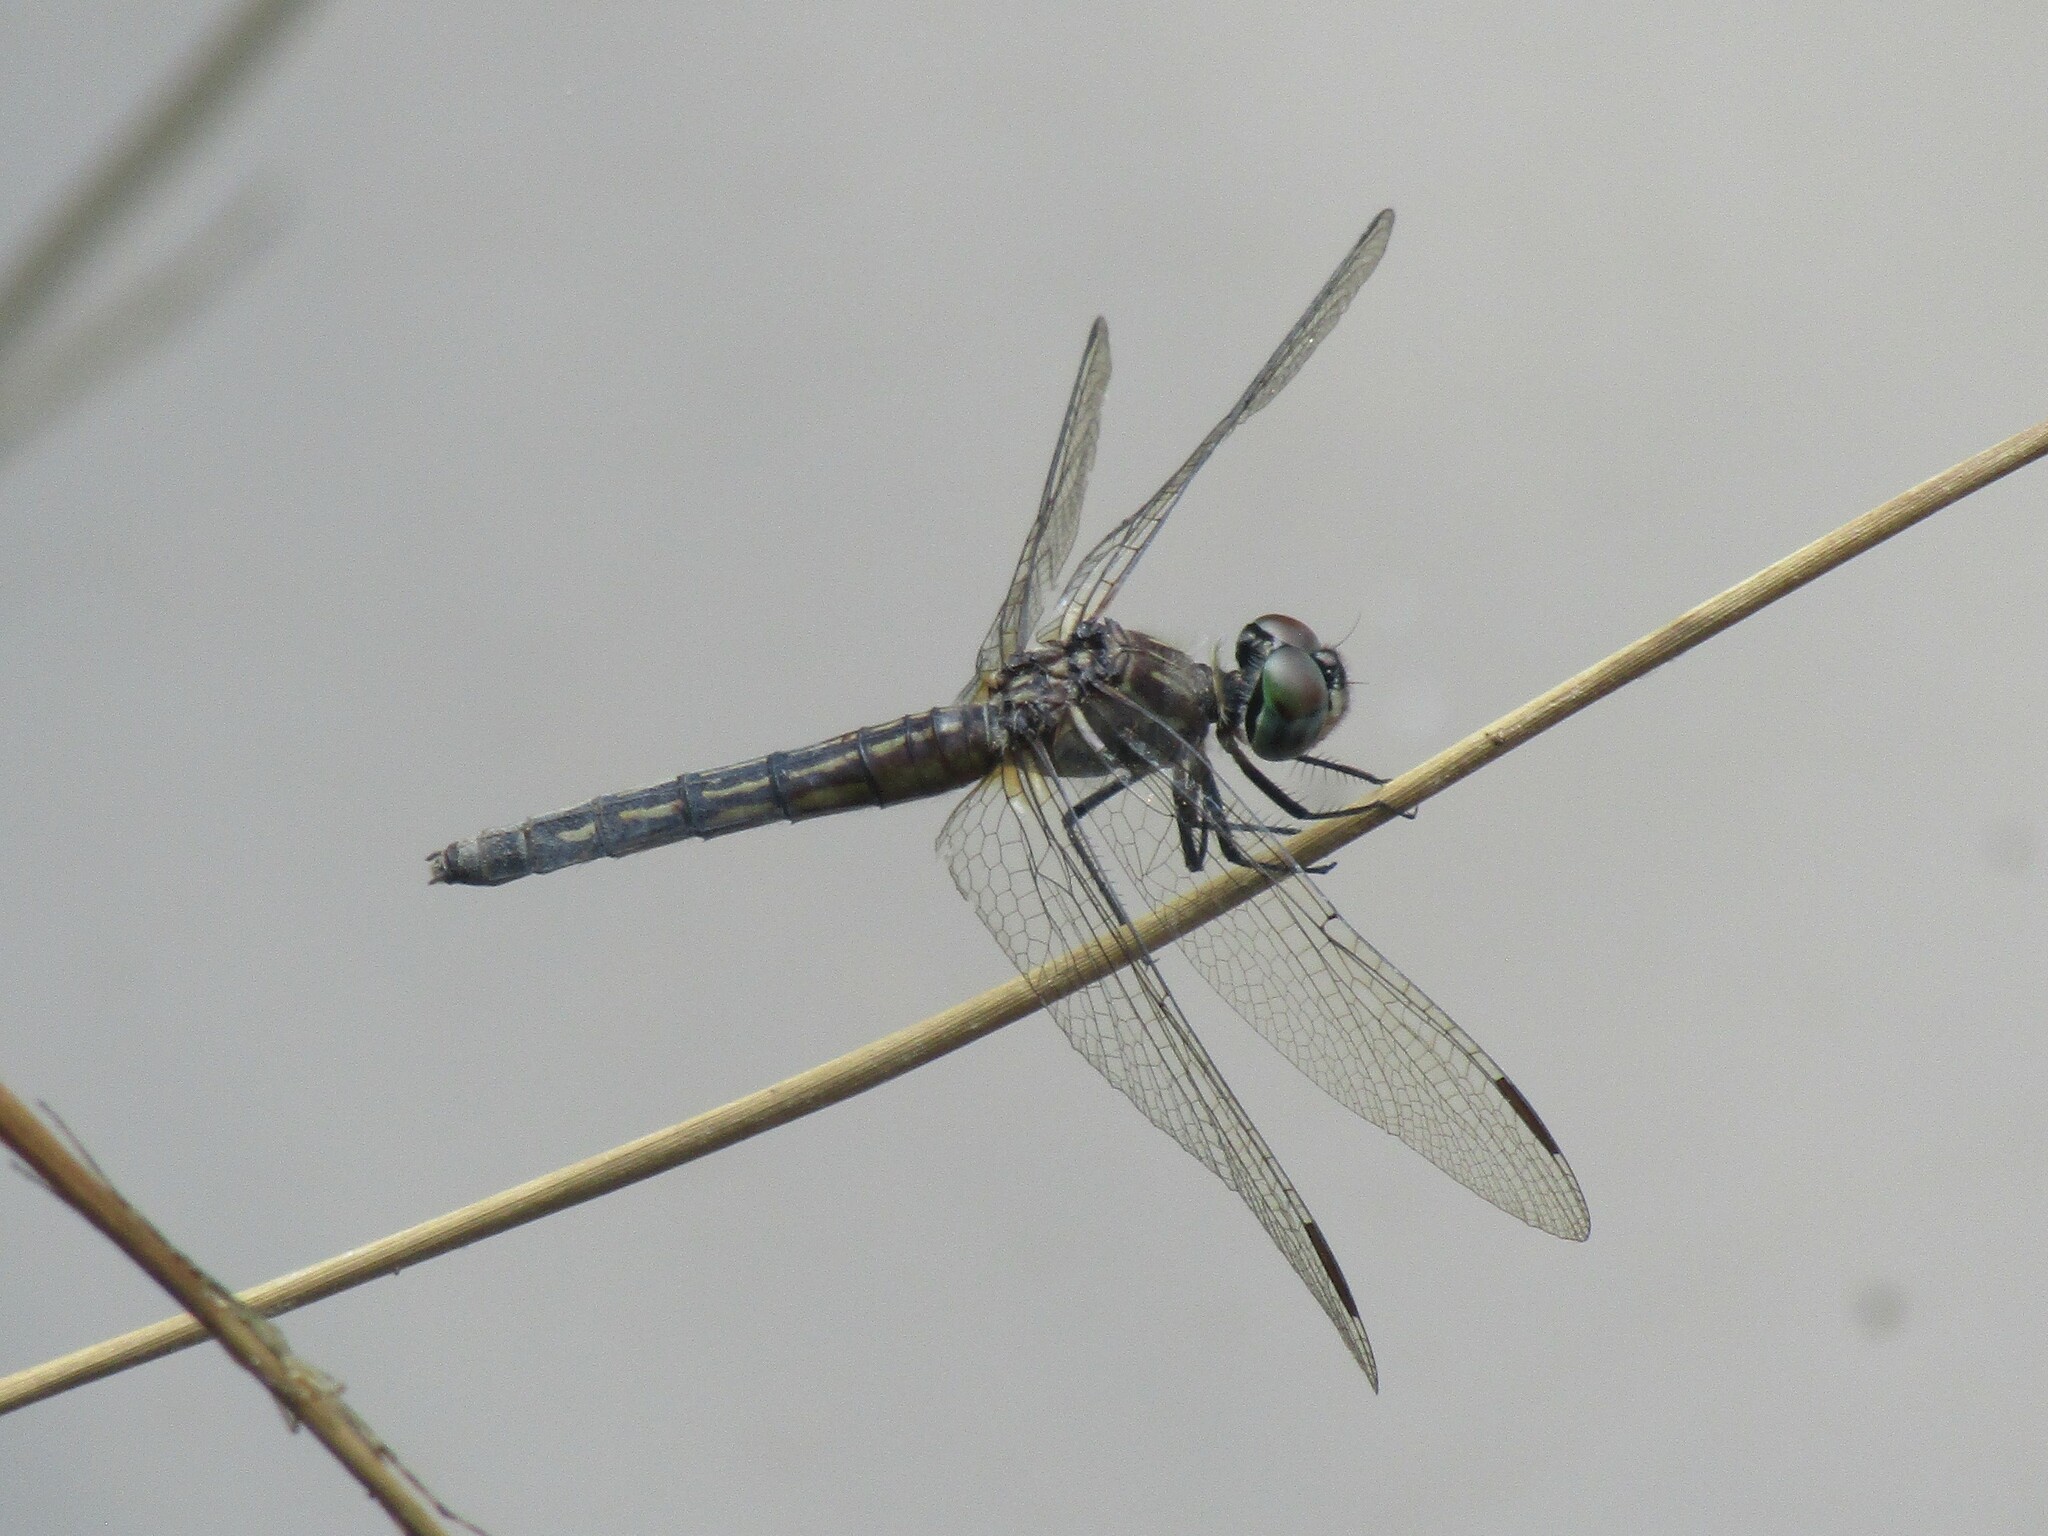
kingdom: Animalia
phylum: Arthropoda
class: Insecta
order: Odonata
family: Libellulidae
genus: Pachydiplax
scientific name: Pachydiplax longipennis
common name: Blue dasher
